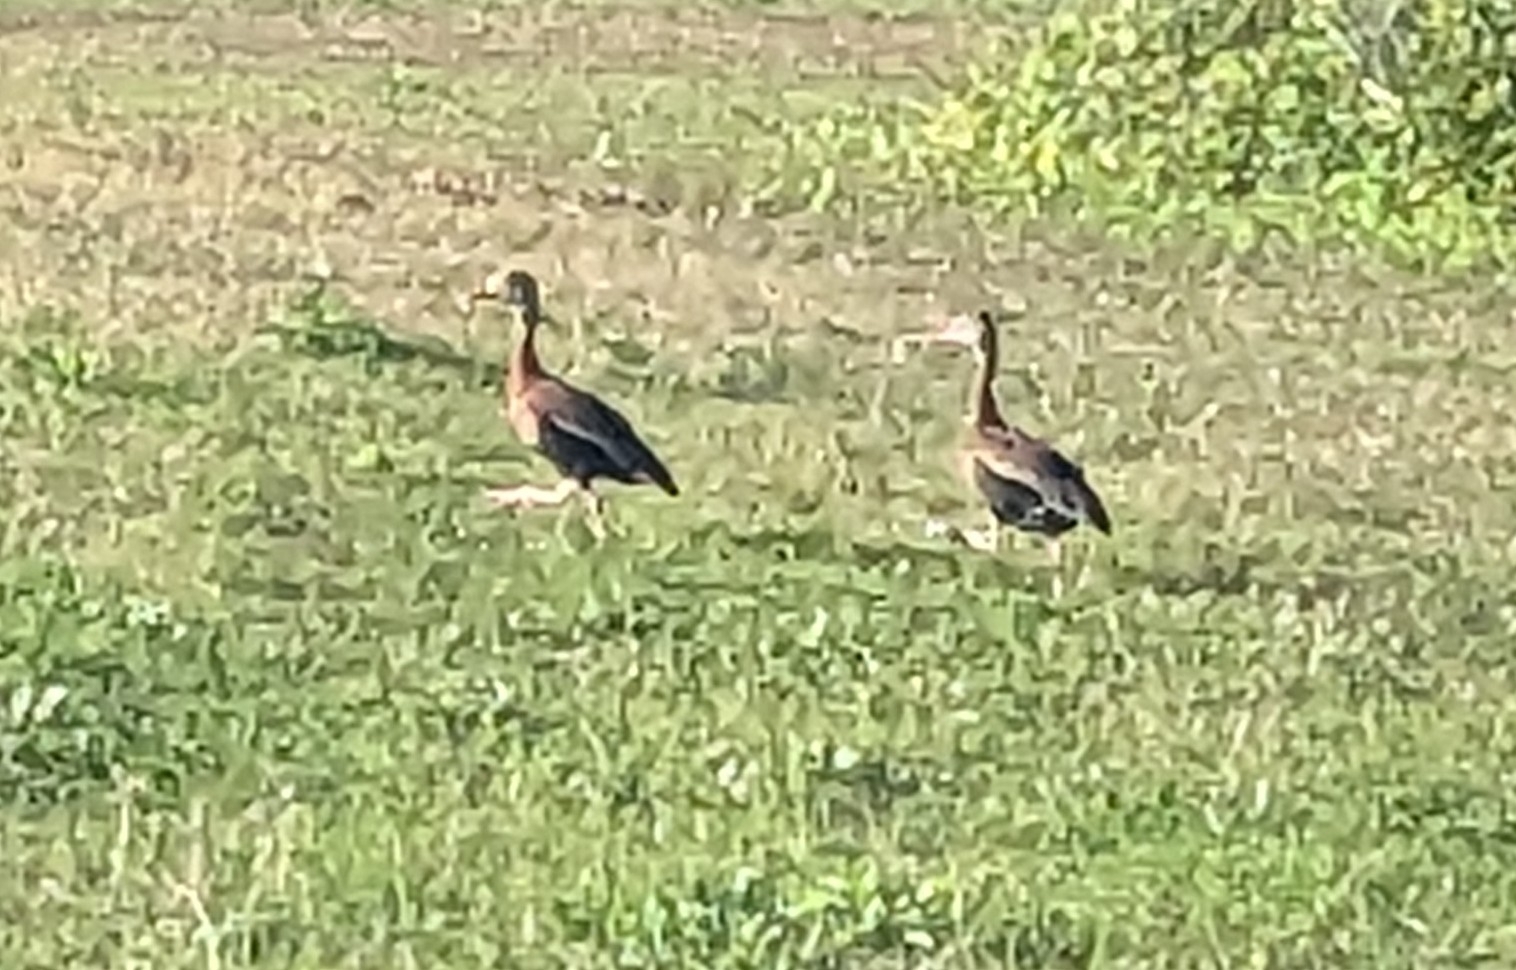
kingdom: Animalia
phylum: Chordata
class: Aves
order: Anseriformes
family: Anatidae
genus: Dendrocygna
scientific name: Dendrocygna autumnalis
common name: Black-bellied whistling duck
